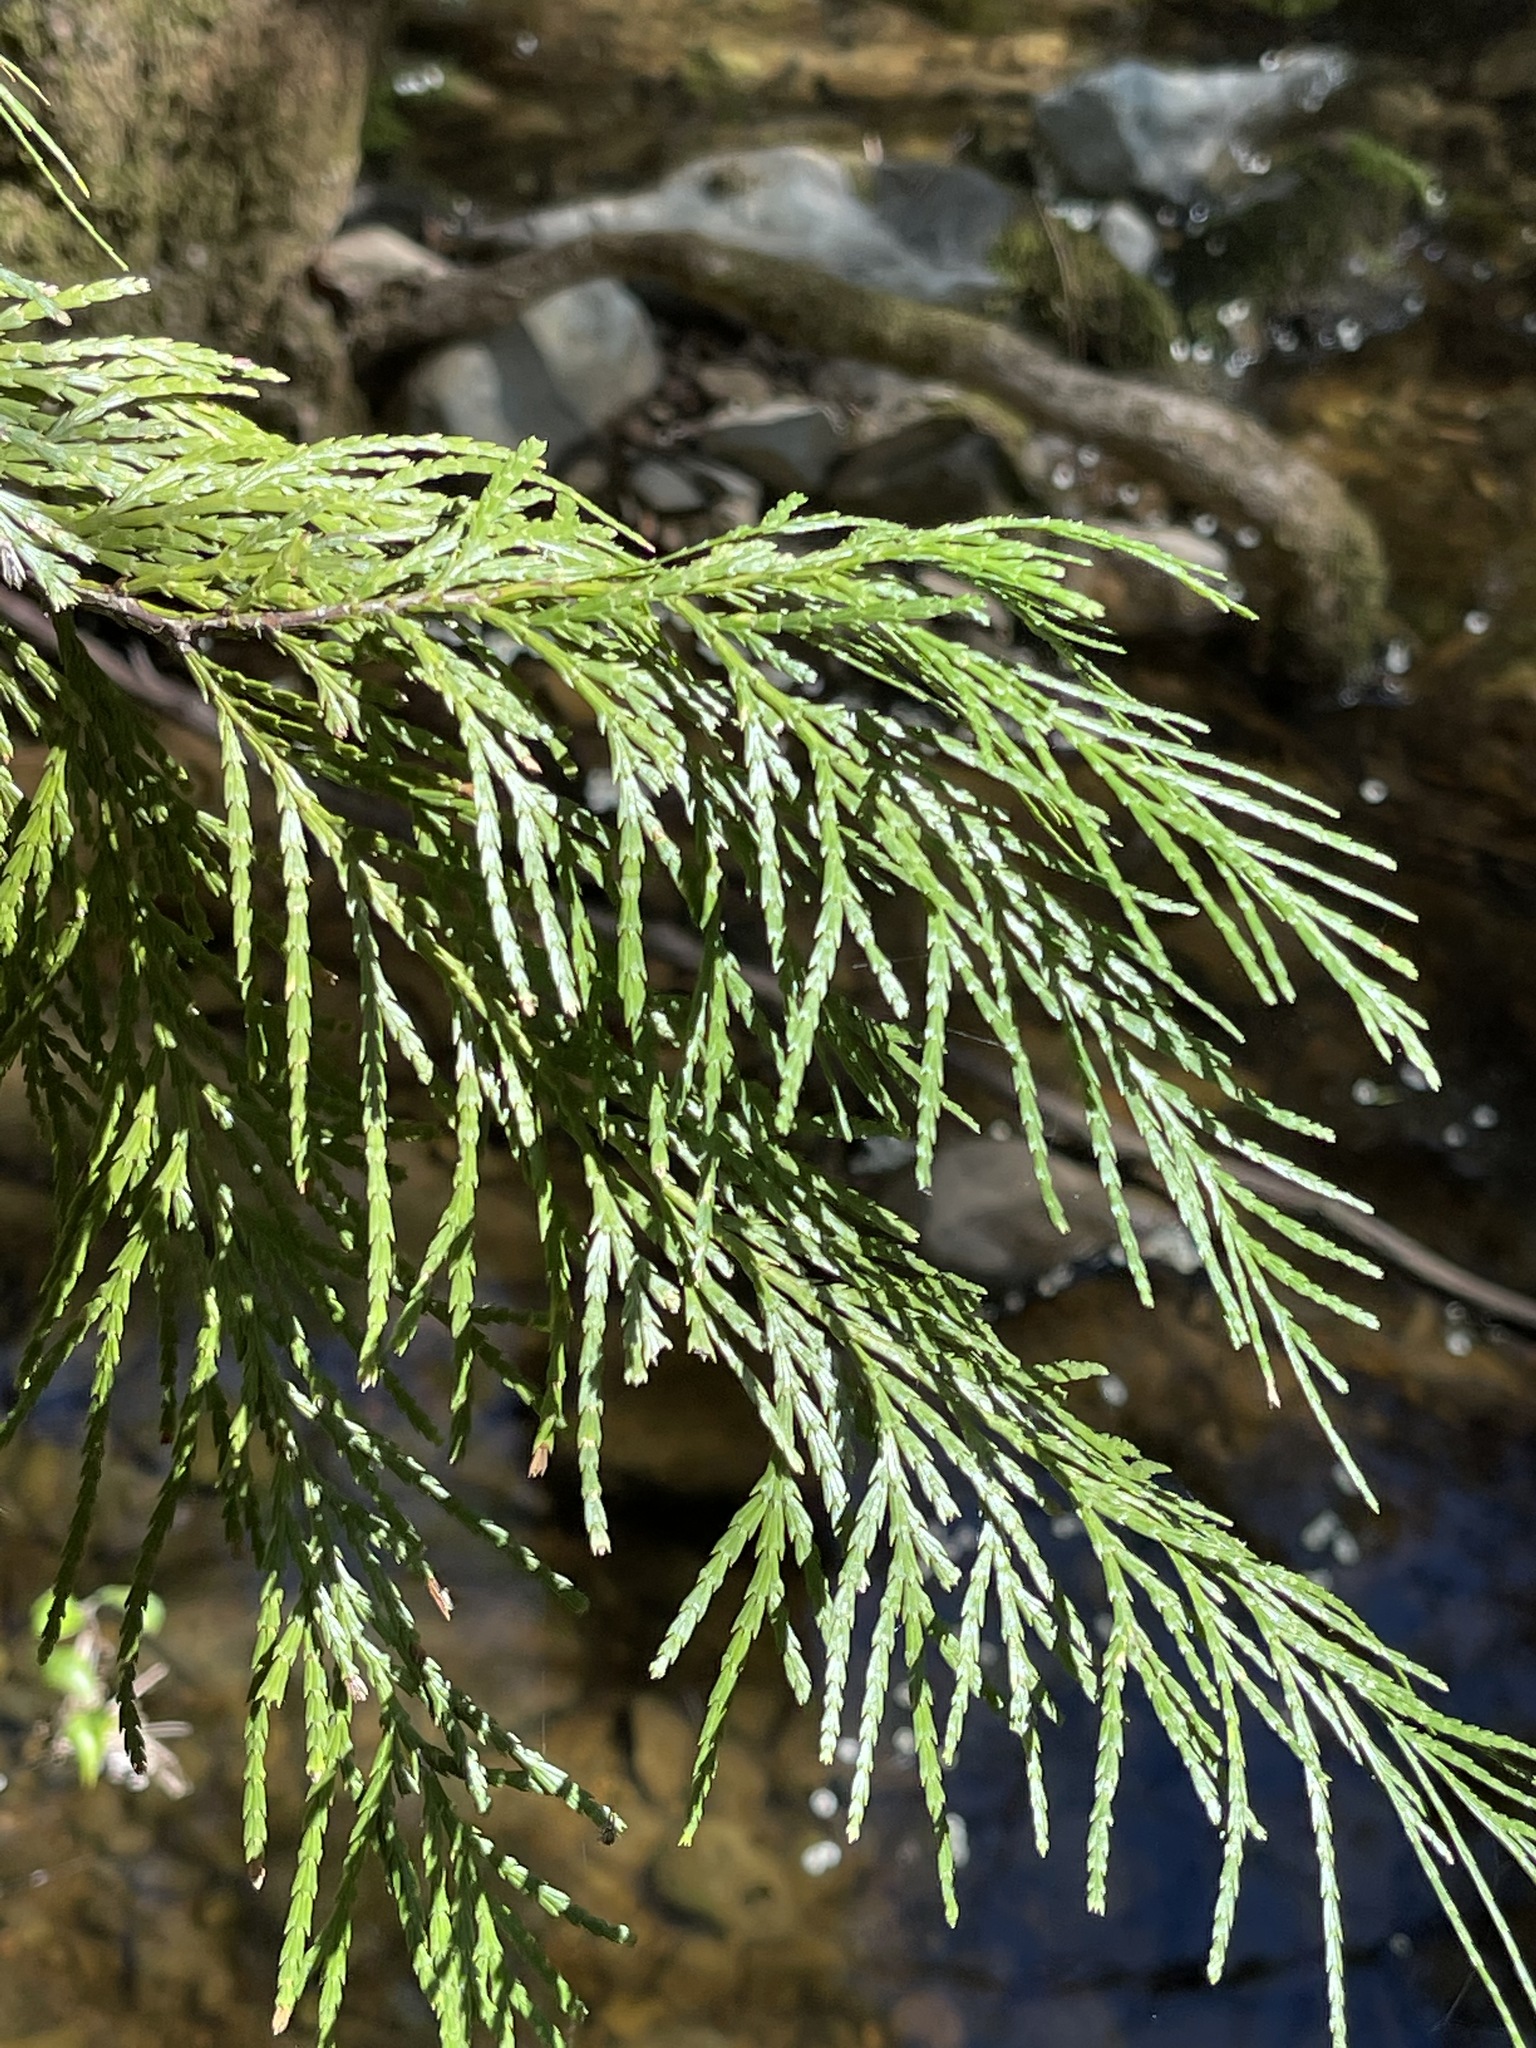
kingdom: Plantae
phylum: Tracheophyta
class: Pinopsida
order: Pinales
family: Cupressaceae
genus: Calocedrus
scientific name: Calocedrus decurrens
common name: Californian incense-cedar
